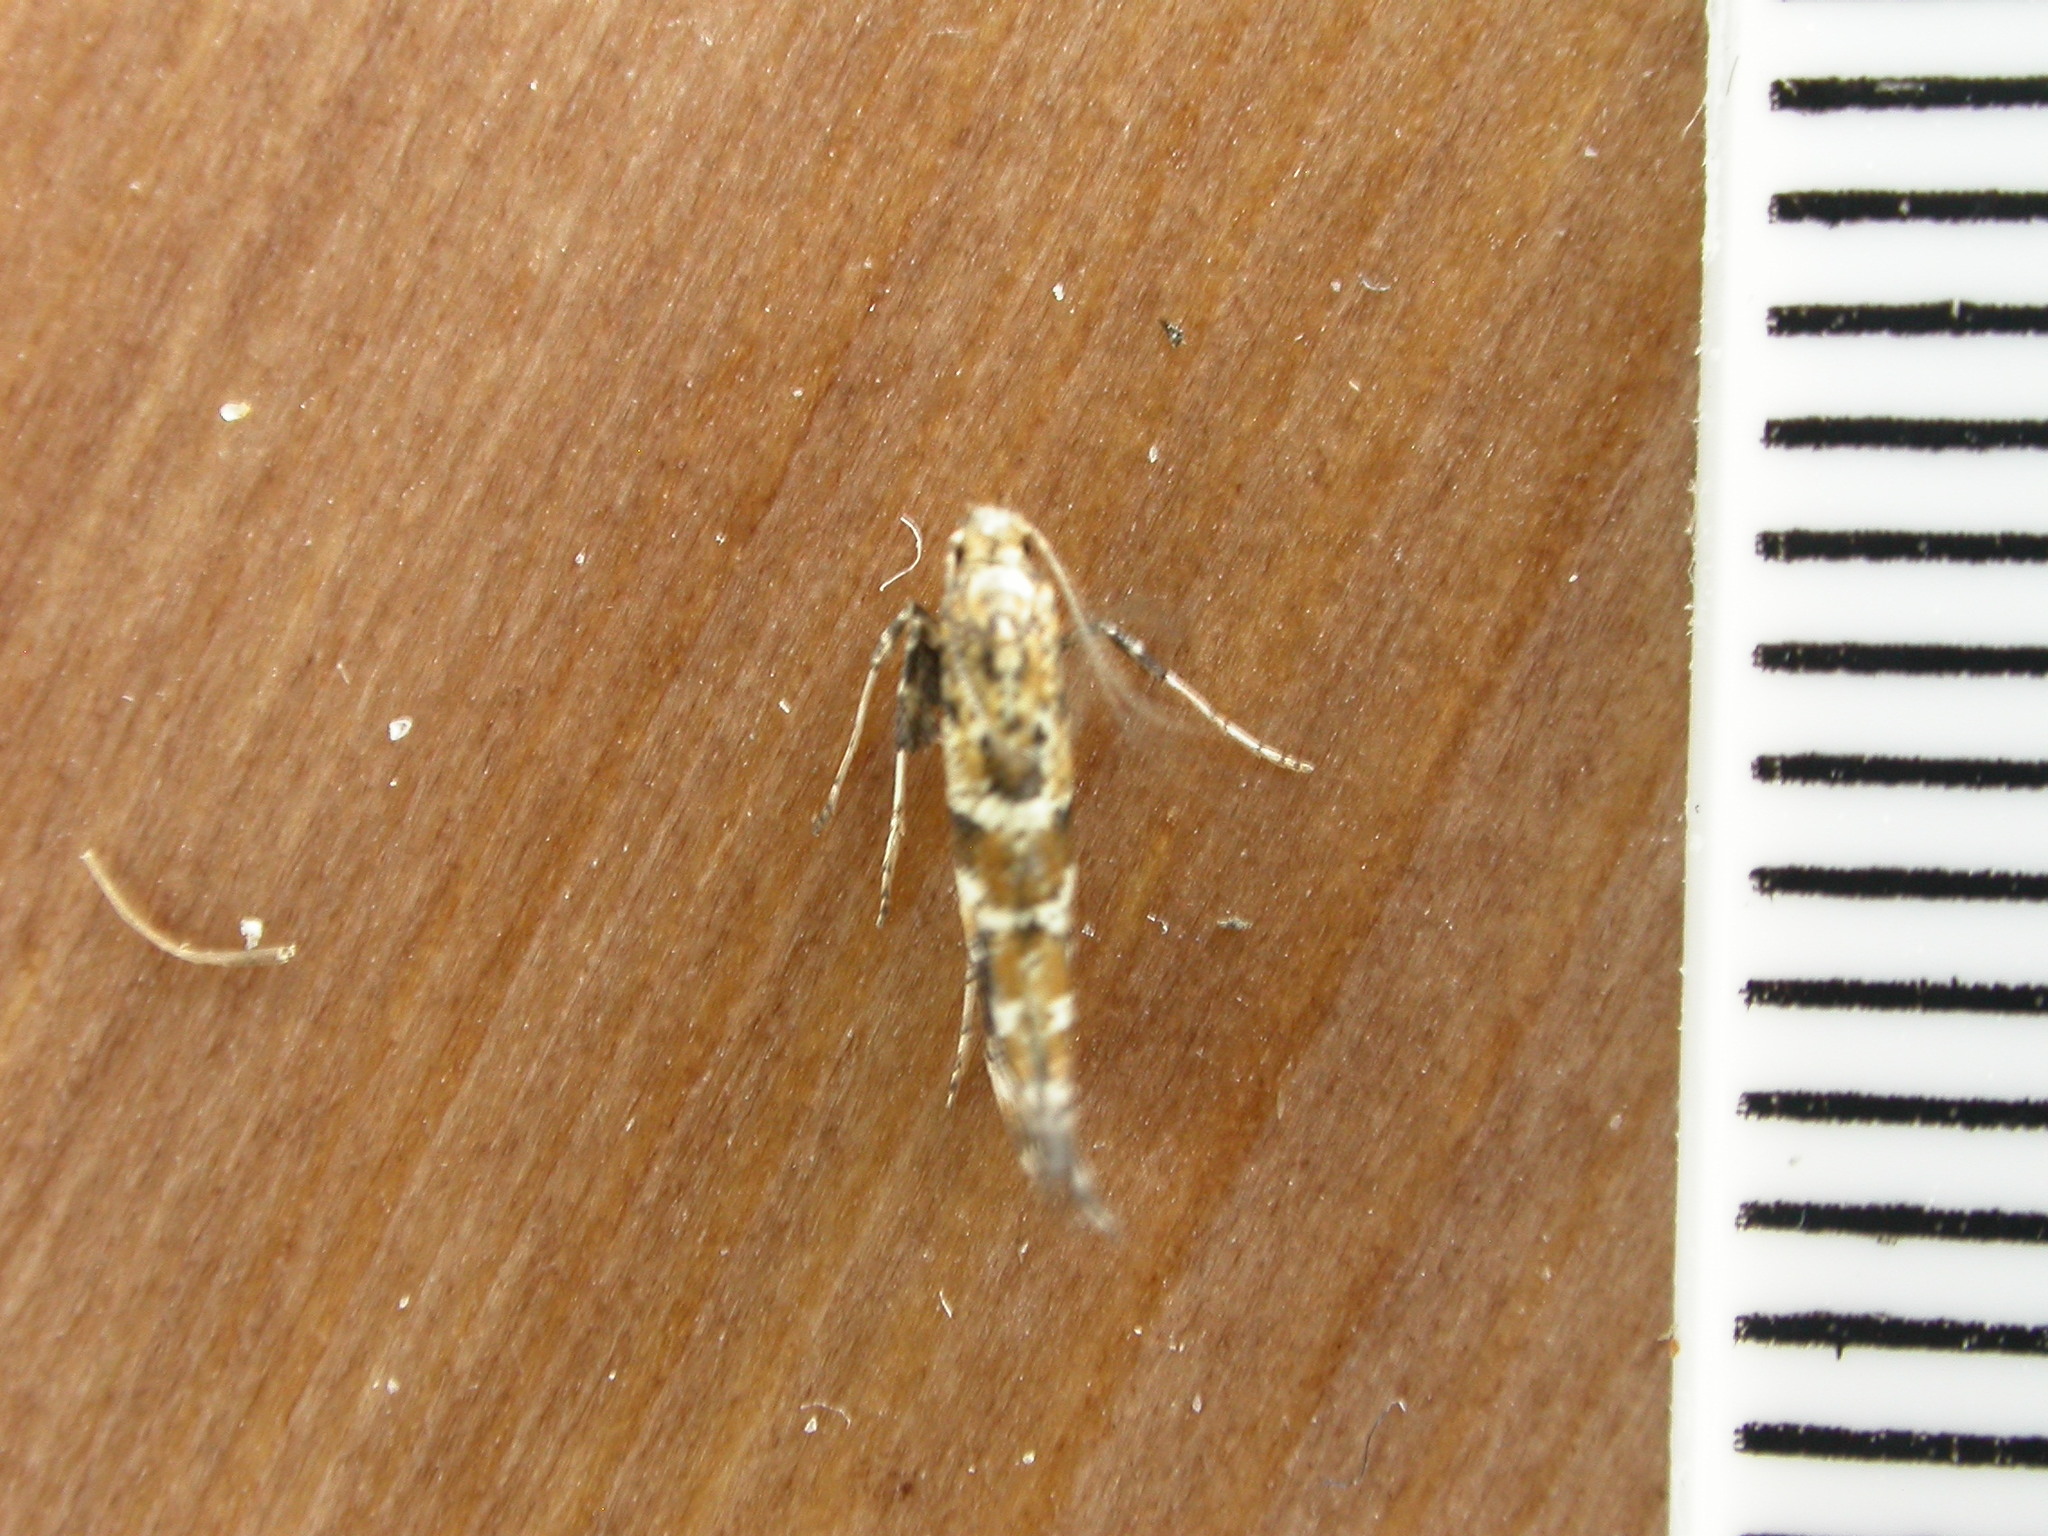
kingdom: Animalia
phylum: Arthropoda
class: Insecta
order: Lepidoptera
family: Gracillariidae
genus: Gracillaria
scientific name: Gracillaria syringella
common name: Common slender
